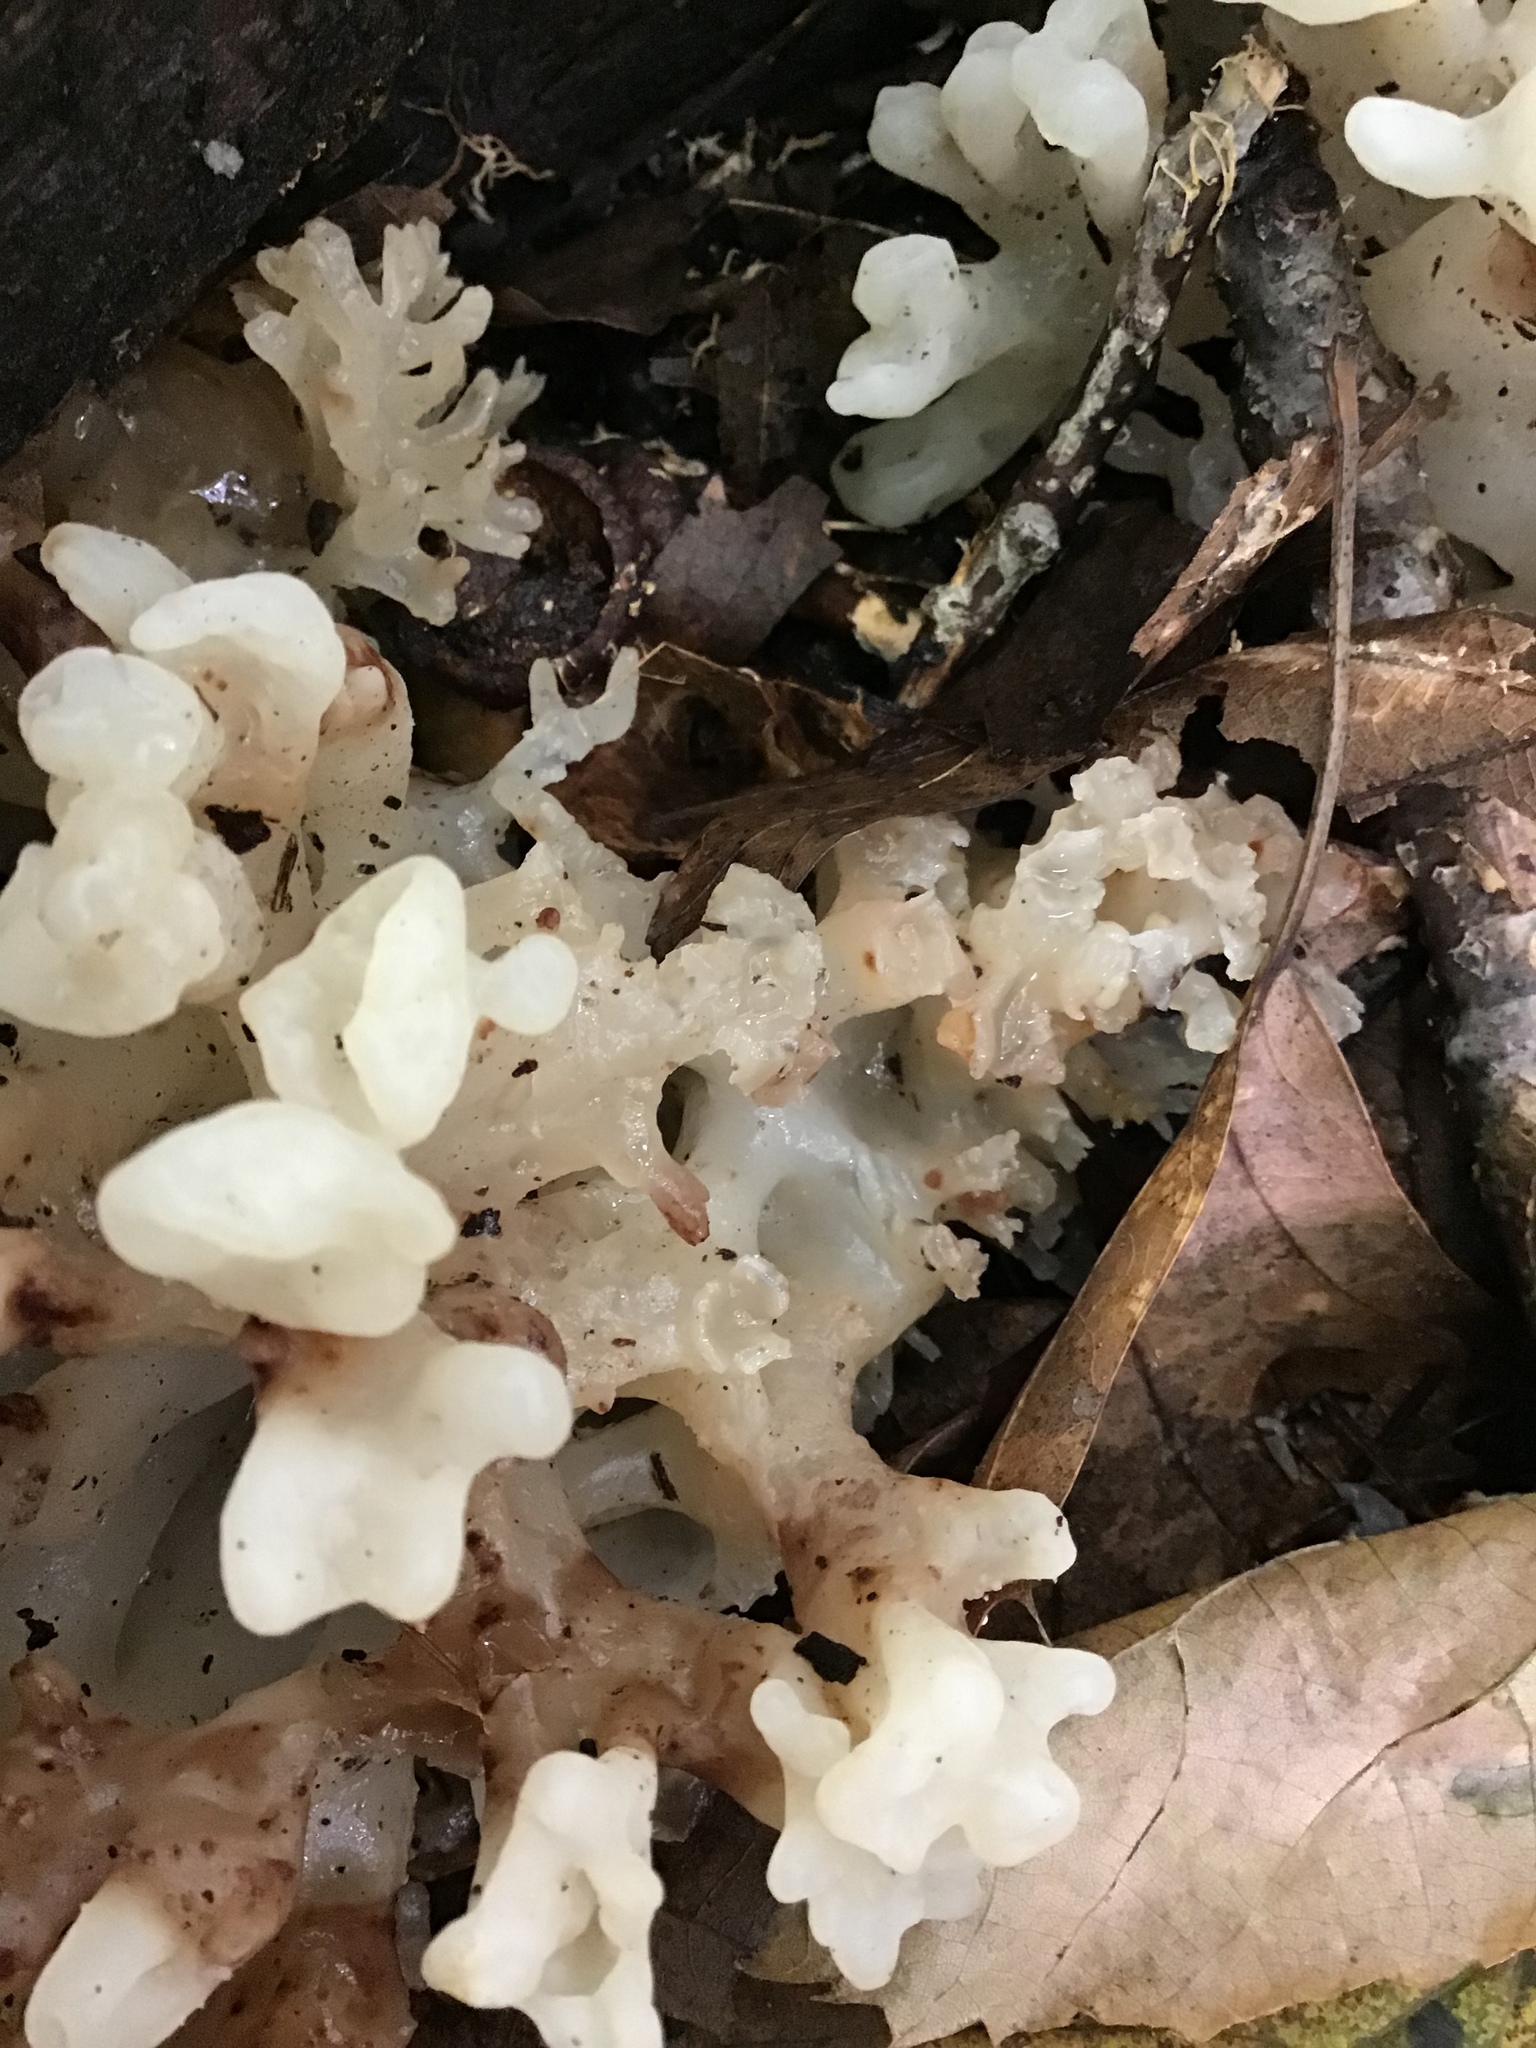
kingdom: Fungi
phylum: Basidiomycota
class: Agaricomycetes
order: Sebacinales
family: Sebacinaceae
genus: Sebacina
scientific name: Sebacina schweinitzii
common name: Jellied false coral fungus
